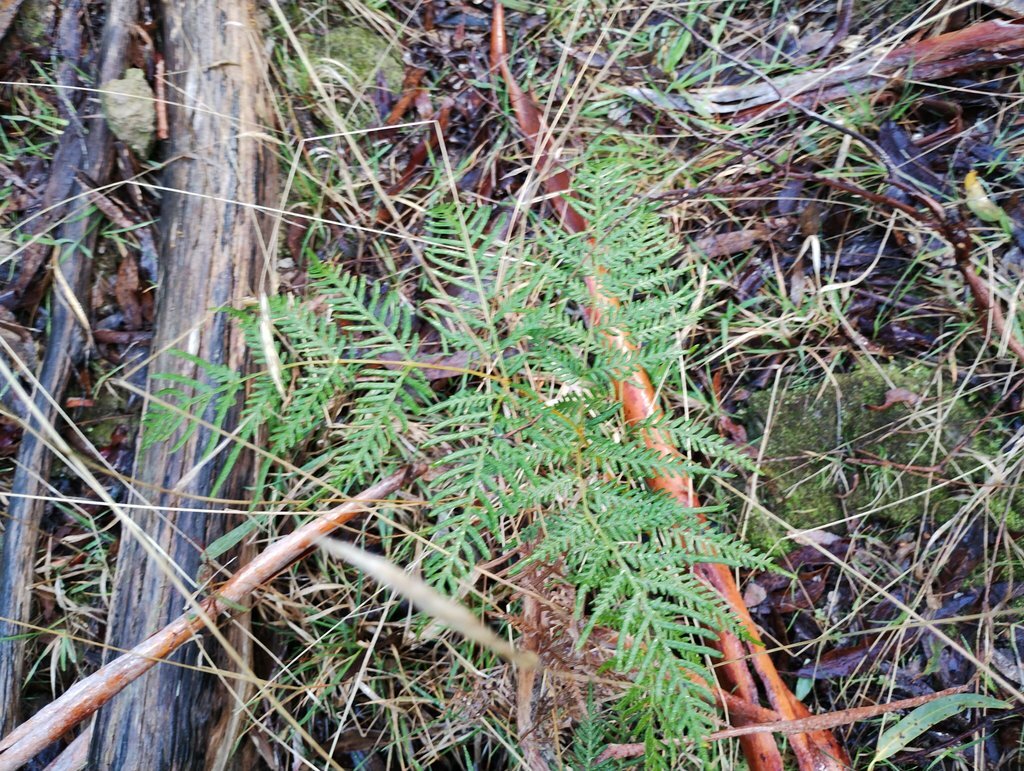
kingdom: Plantae
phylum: Tracheophyta
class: Polypodiopsida
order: Polypodiales
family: Dennstaedtiaceae
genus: Pteridium
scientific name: Pteridium esculentum
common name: Bracken fern
